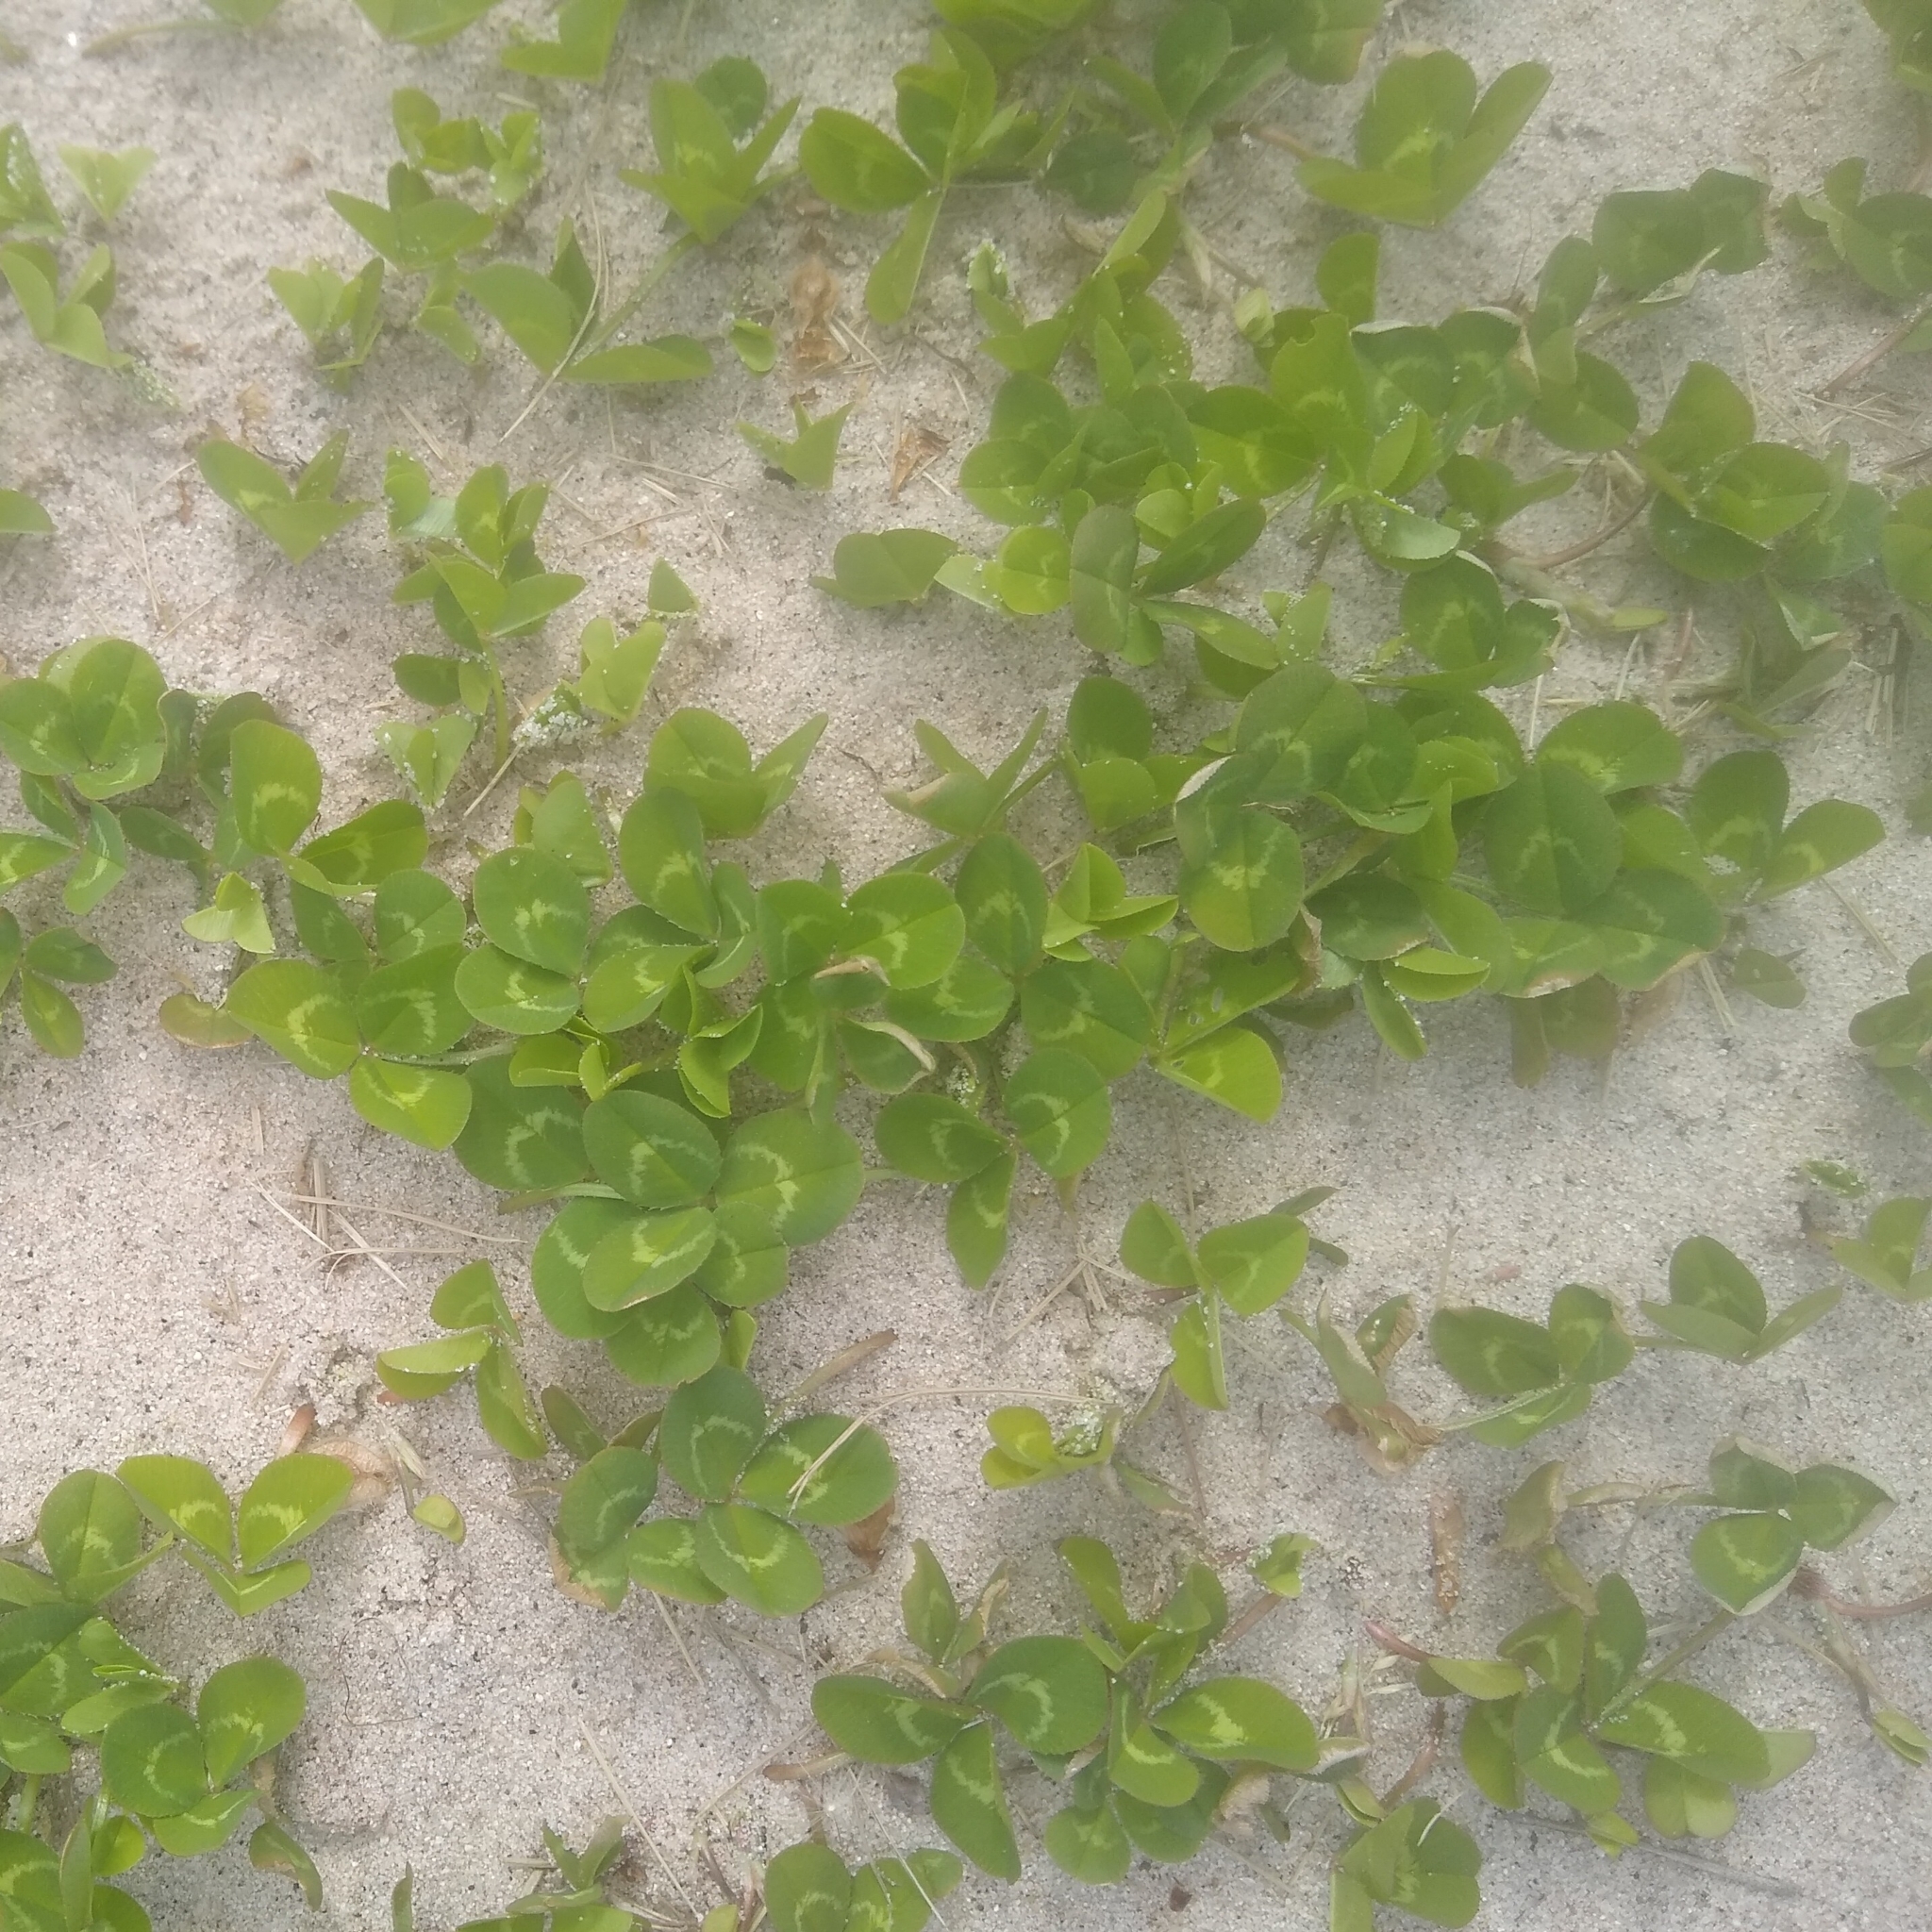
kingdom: Plantae
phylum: Tracheophyta
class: Magnoliopsida
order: Fabales
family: Fabaceae
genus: Trifolium
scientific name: Trifolium repens
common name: White clover
